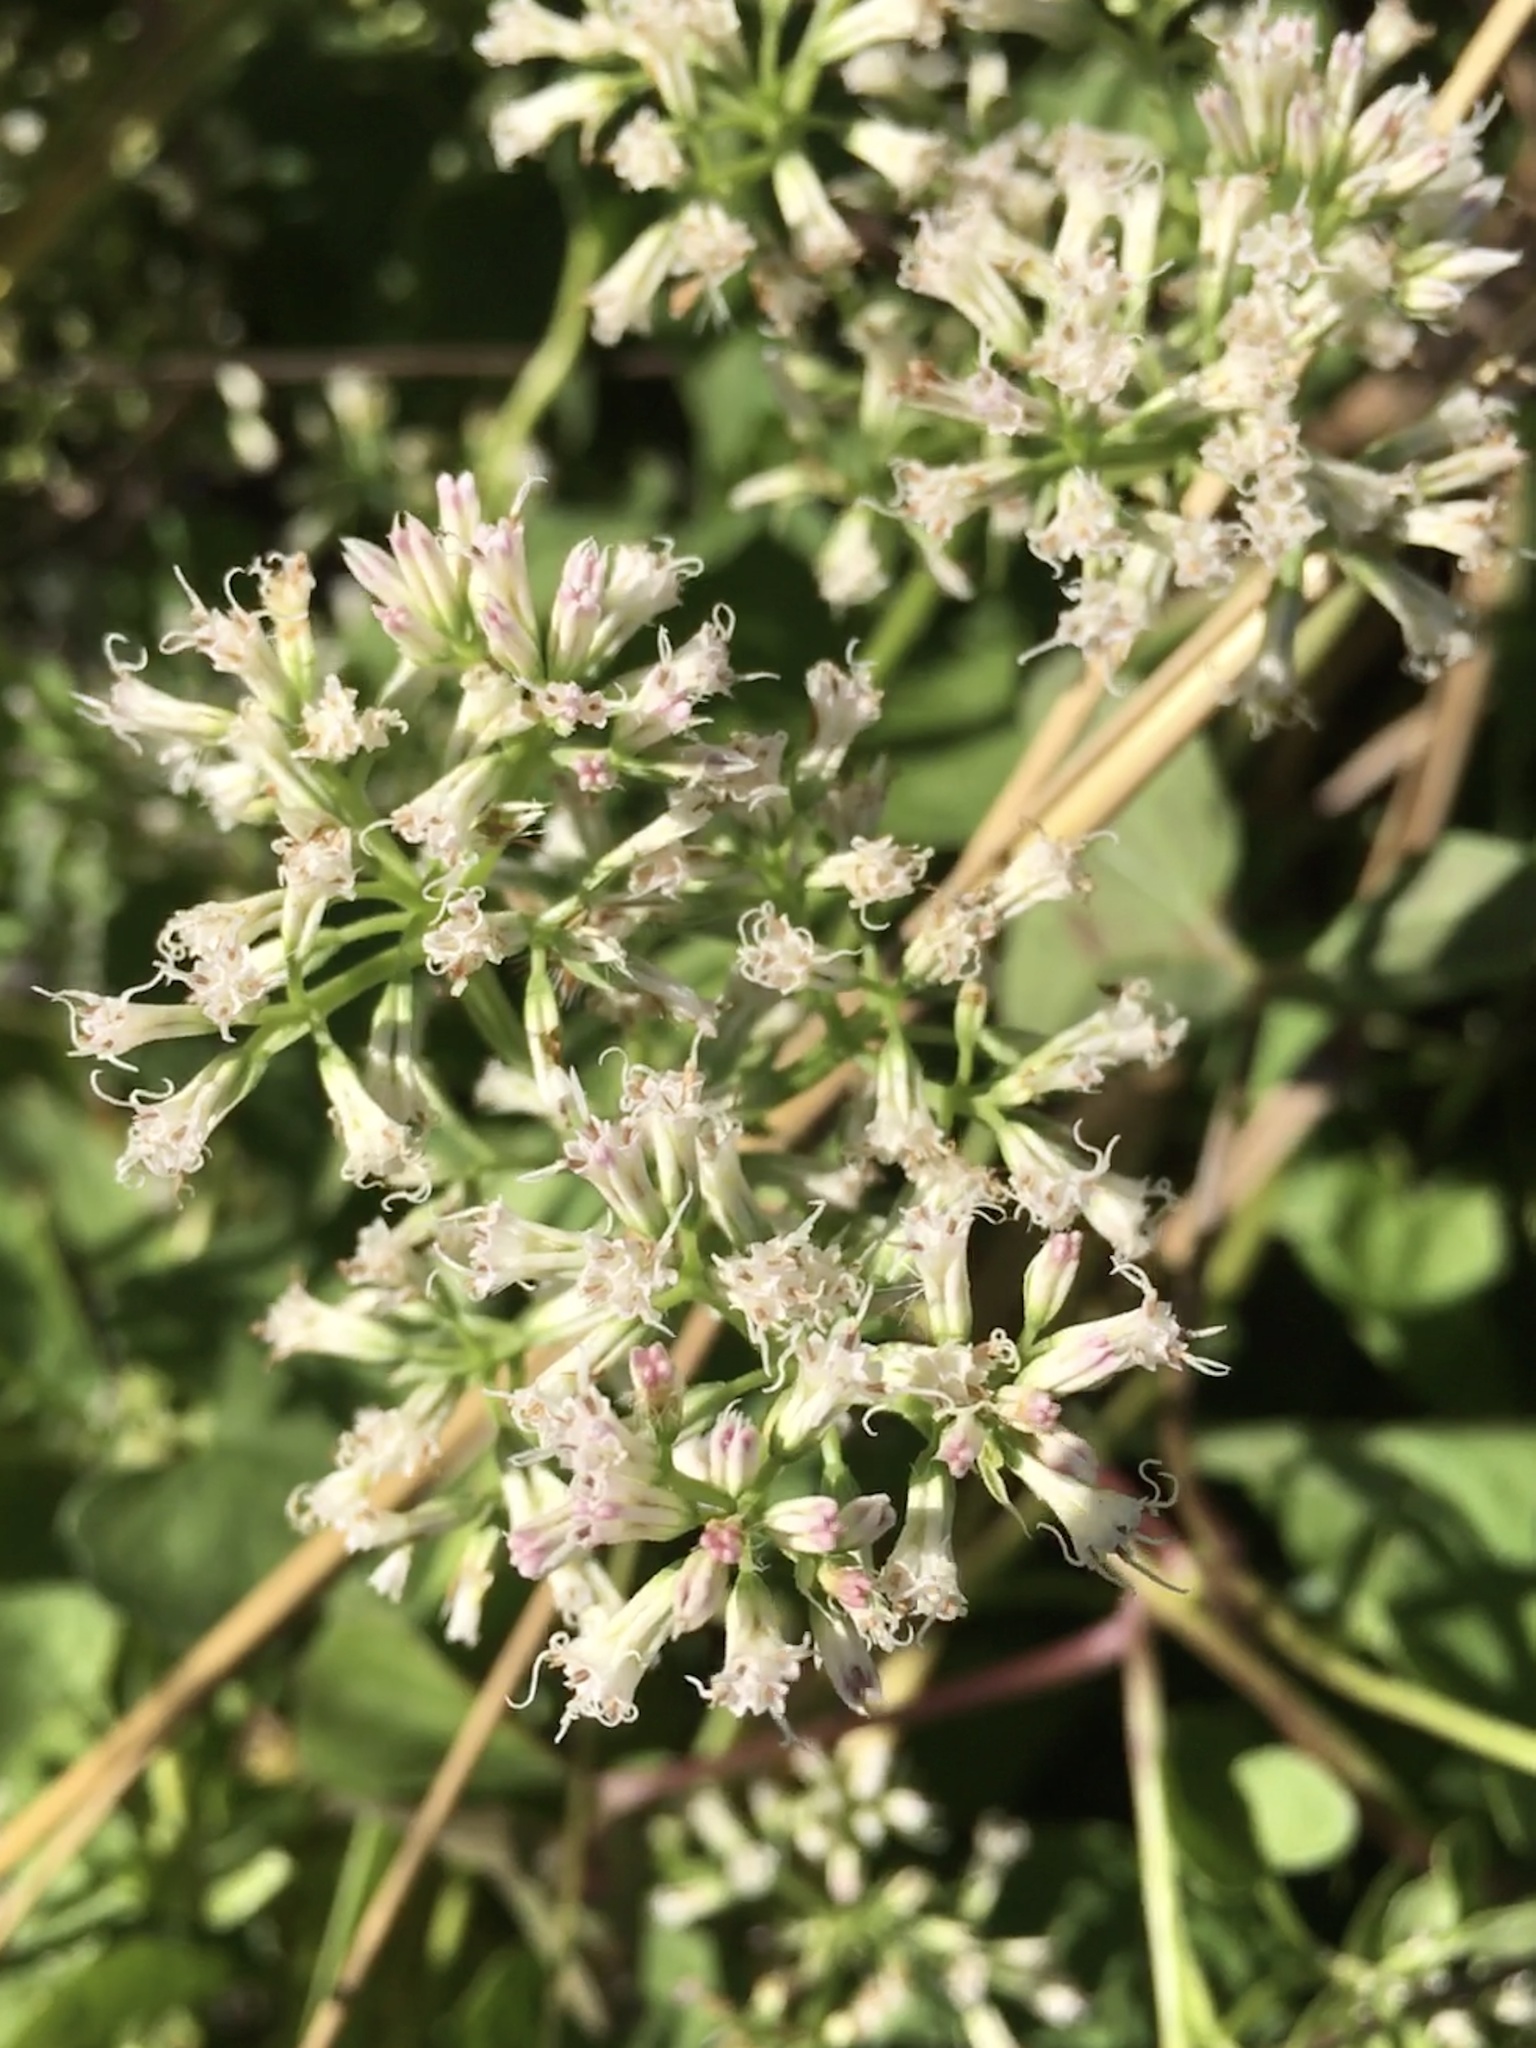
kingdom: Plantae
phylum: Tracheophyta
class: Magnoliopsida
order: Asterales
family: Asteraceae
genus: Mikania
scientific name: Mikania scandens
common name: Climbing hempvine
